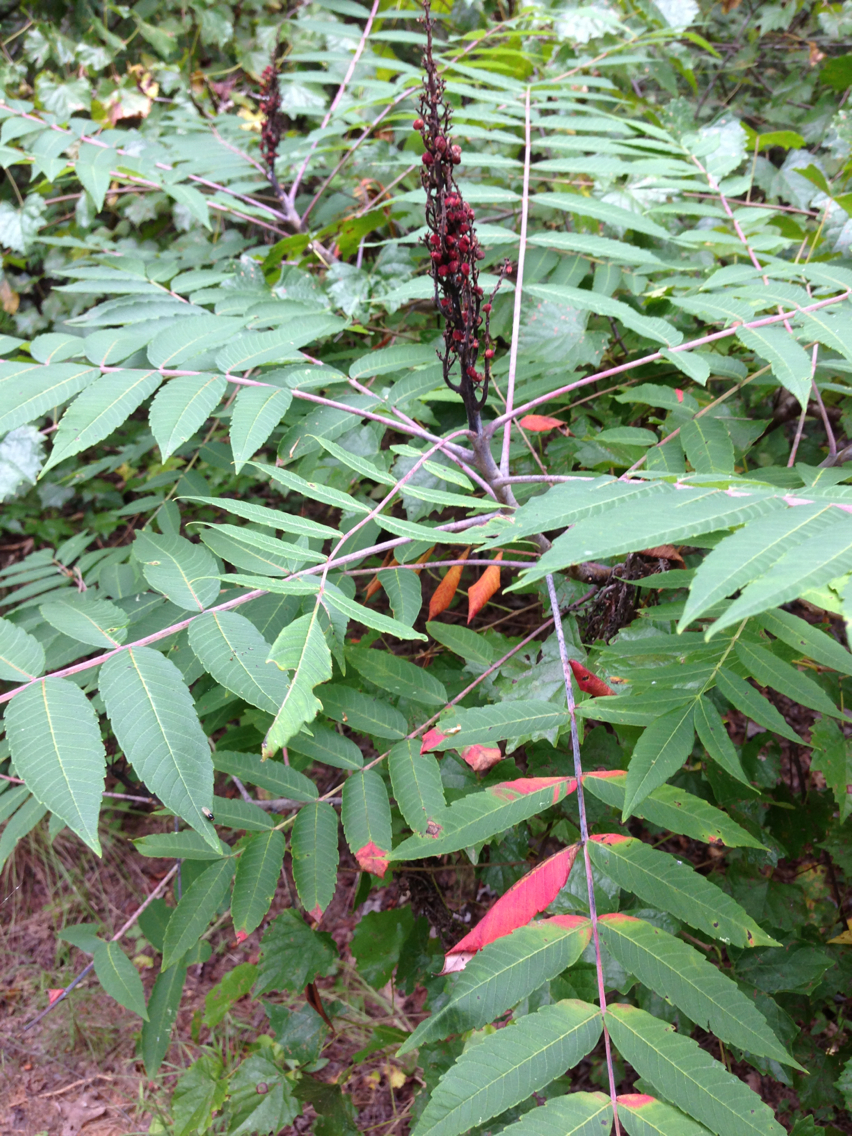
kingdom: Plantae
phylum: Tracheophyta
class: Magnoliopsida
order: Sapindales
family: Anacardiaceae
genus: Rhus
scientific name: Rhus glabra
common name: Scarlet sumac
